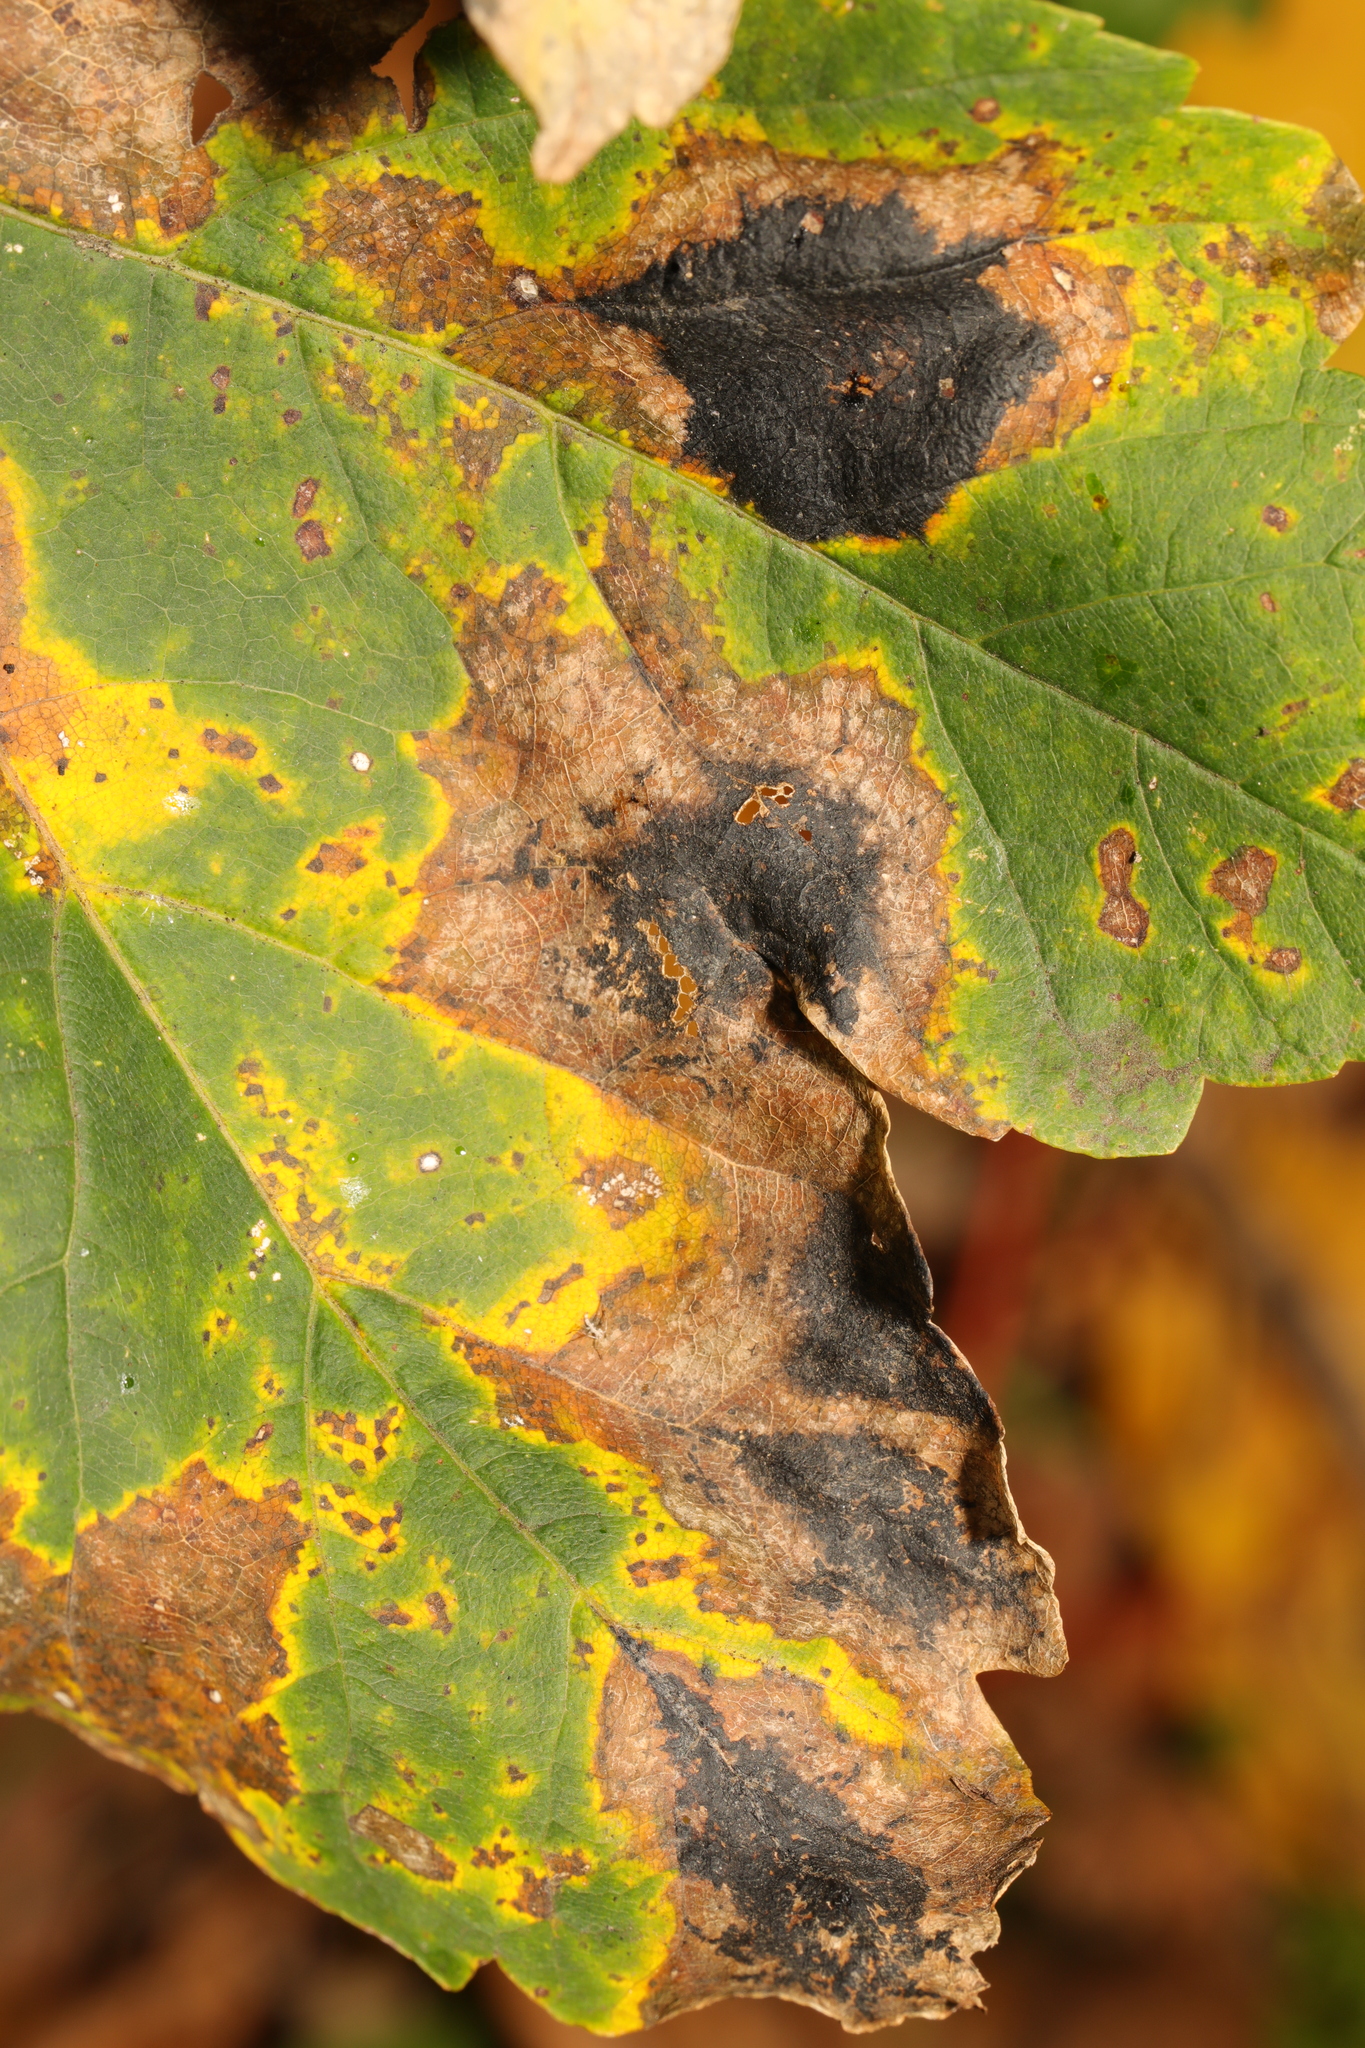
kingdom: Fungi
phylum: Ascomycota
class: Leotiomycetes
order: Rhytismatales
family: Rhytismataceae
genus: Rhytisma
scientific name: Rhytisma acerinum
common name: European tar spot
